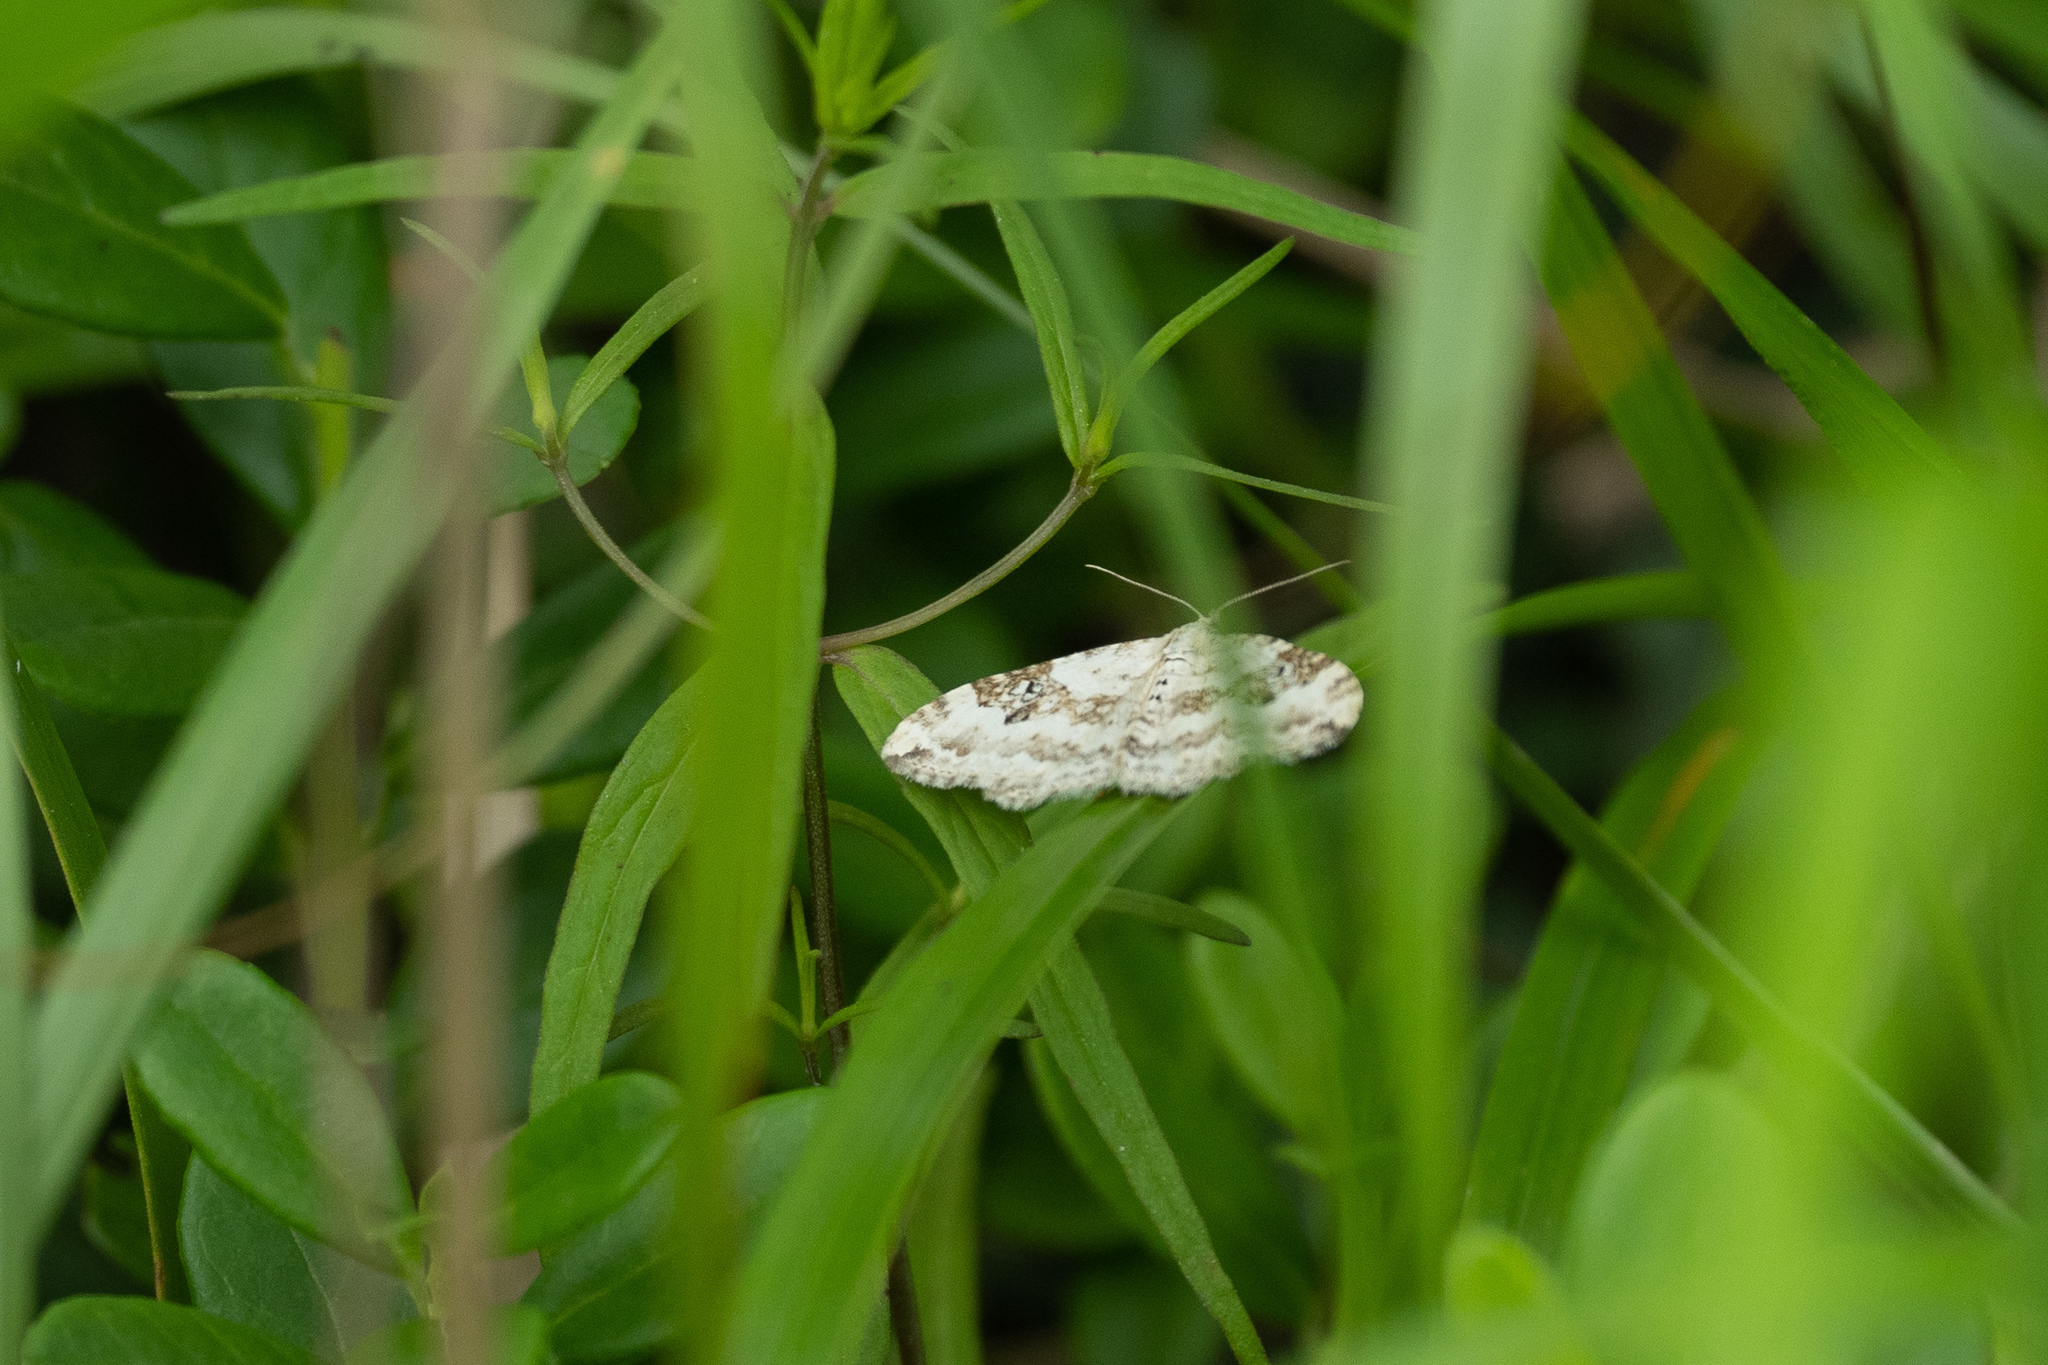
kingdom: Animalia
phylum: Arthropoda
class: Insecta
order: Lepidoptera
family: Geometridae
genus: Xanthorhoe
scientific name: Xanthorhoe montanata
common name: Silver-ground carpet
